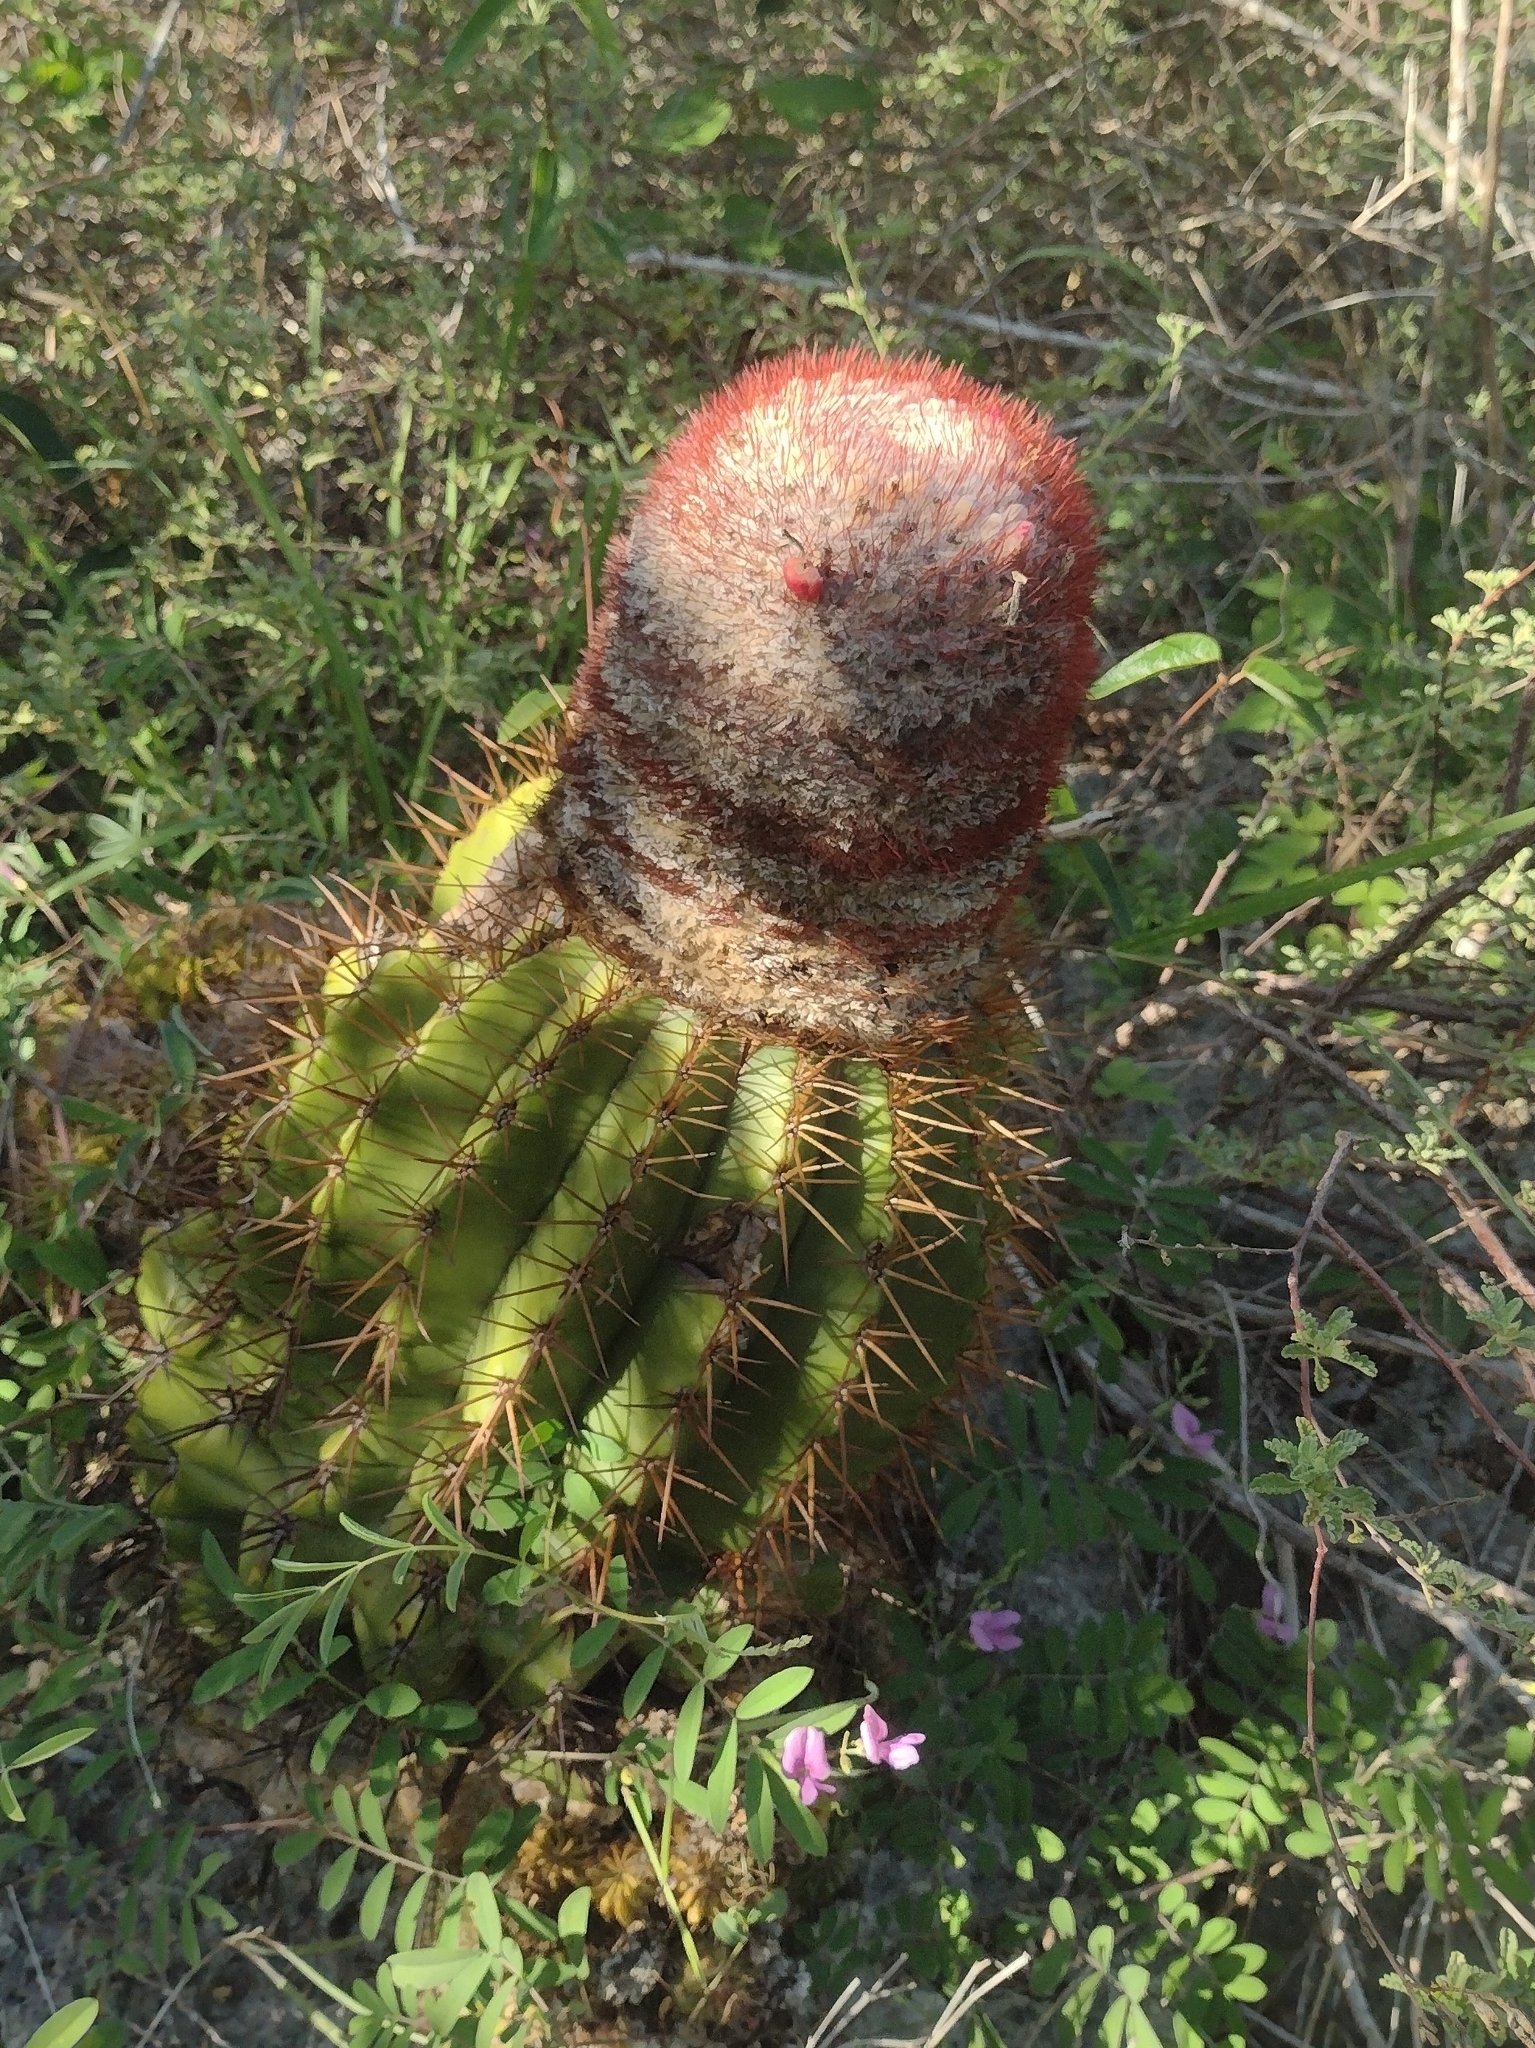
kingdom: Plantae
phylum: Tracheophyta
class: Magnoliopsida
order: Caryophyllales
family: Cactaceae
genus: Melocactus
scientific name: Melocactus intortus
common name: Barrel cactus
